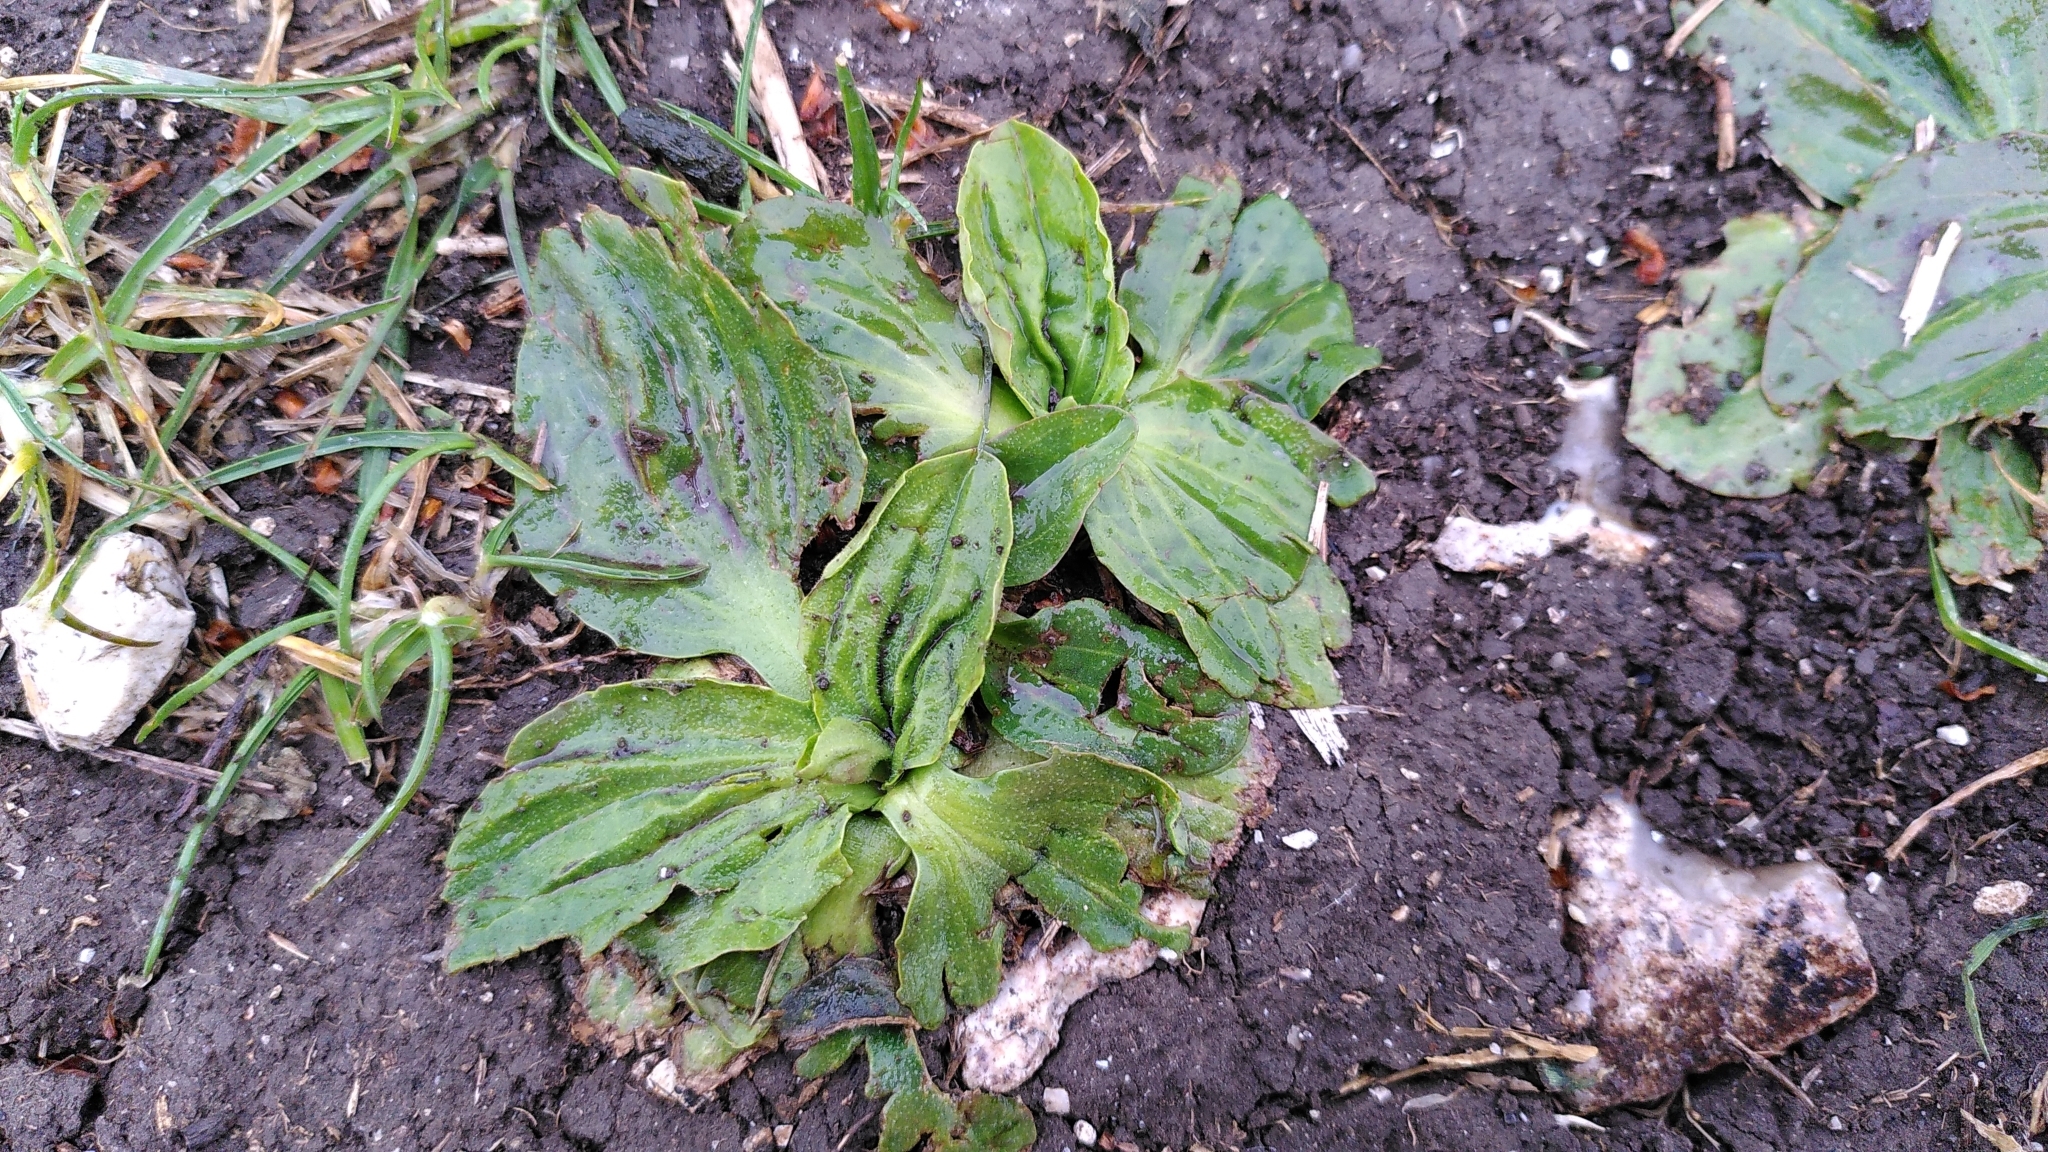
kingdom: Plantae
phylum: Tracheophyta
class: Magnoliopsida
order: Lamiales
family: Plantaginaceae
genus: Plantago
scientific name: Plantago major
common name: Common plantain
